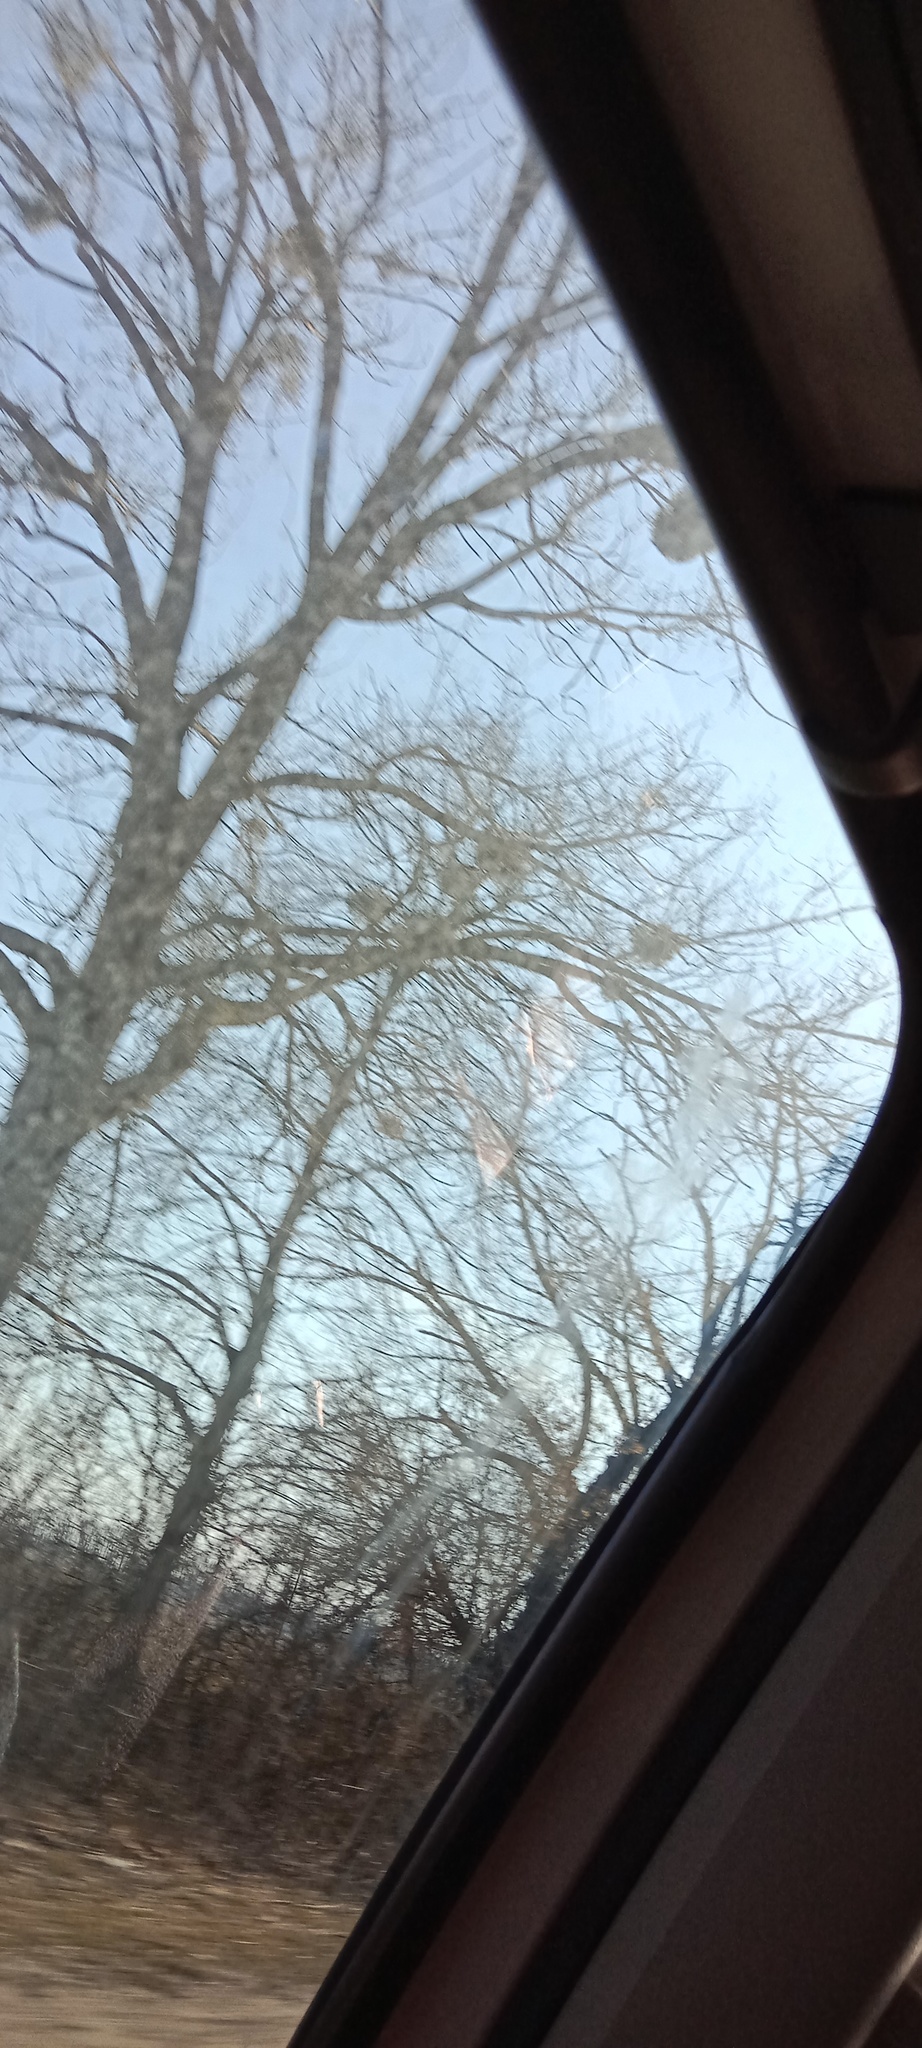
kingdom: Plantae
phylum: Tracheophyta
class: Magnoliopsida
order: Santalales
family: Viscaceae
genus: Viscum
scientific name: Viscum album
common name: Mistletoe
